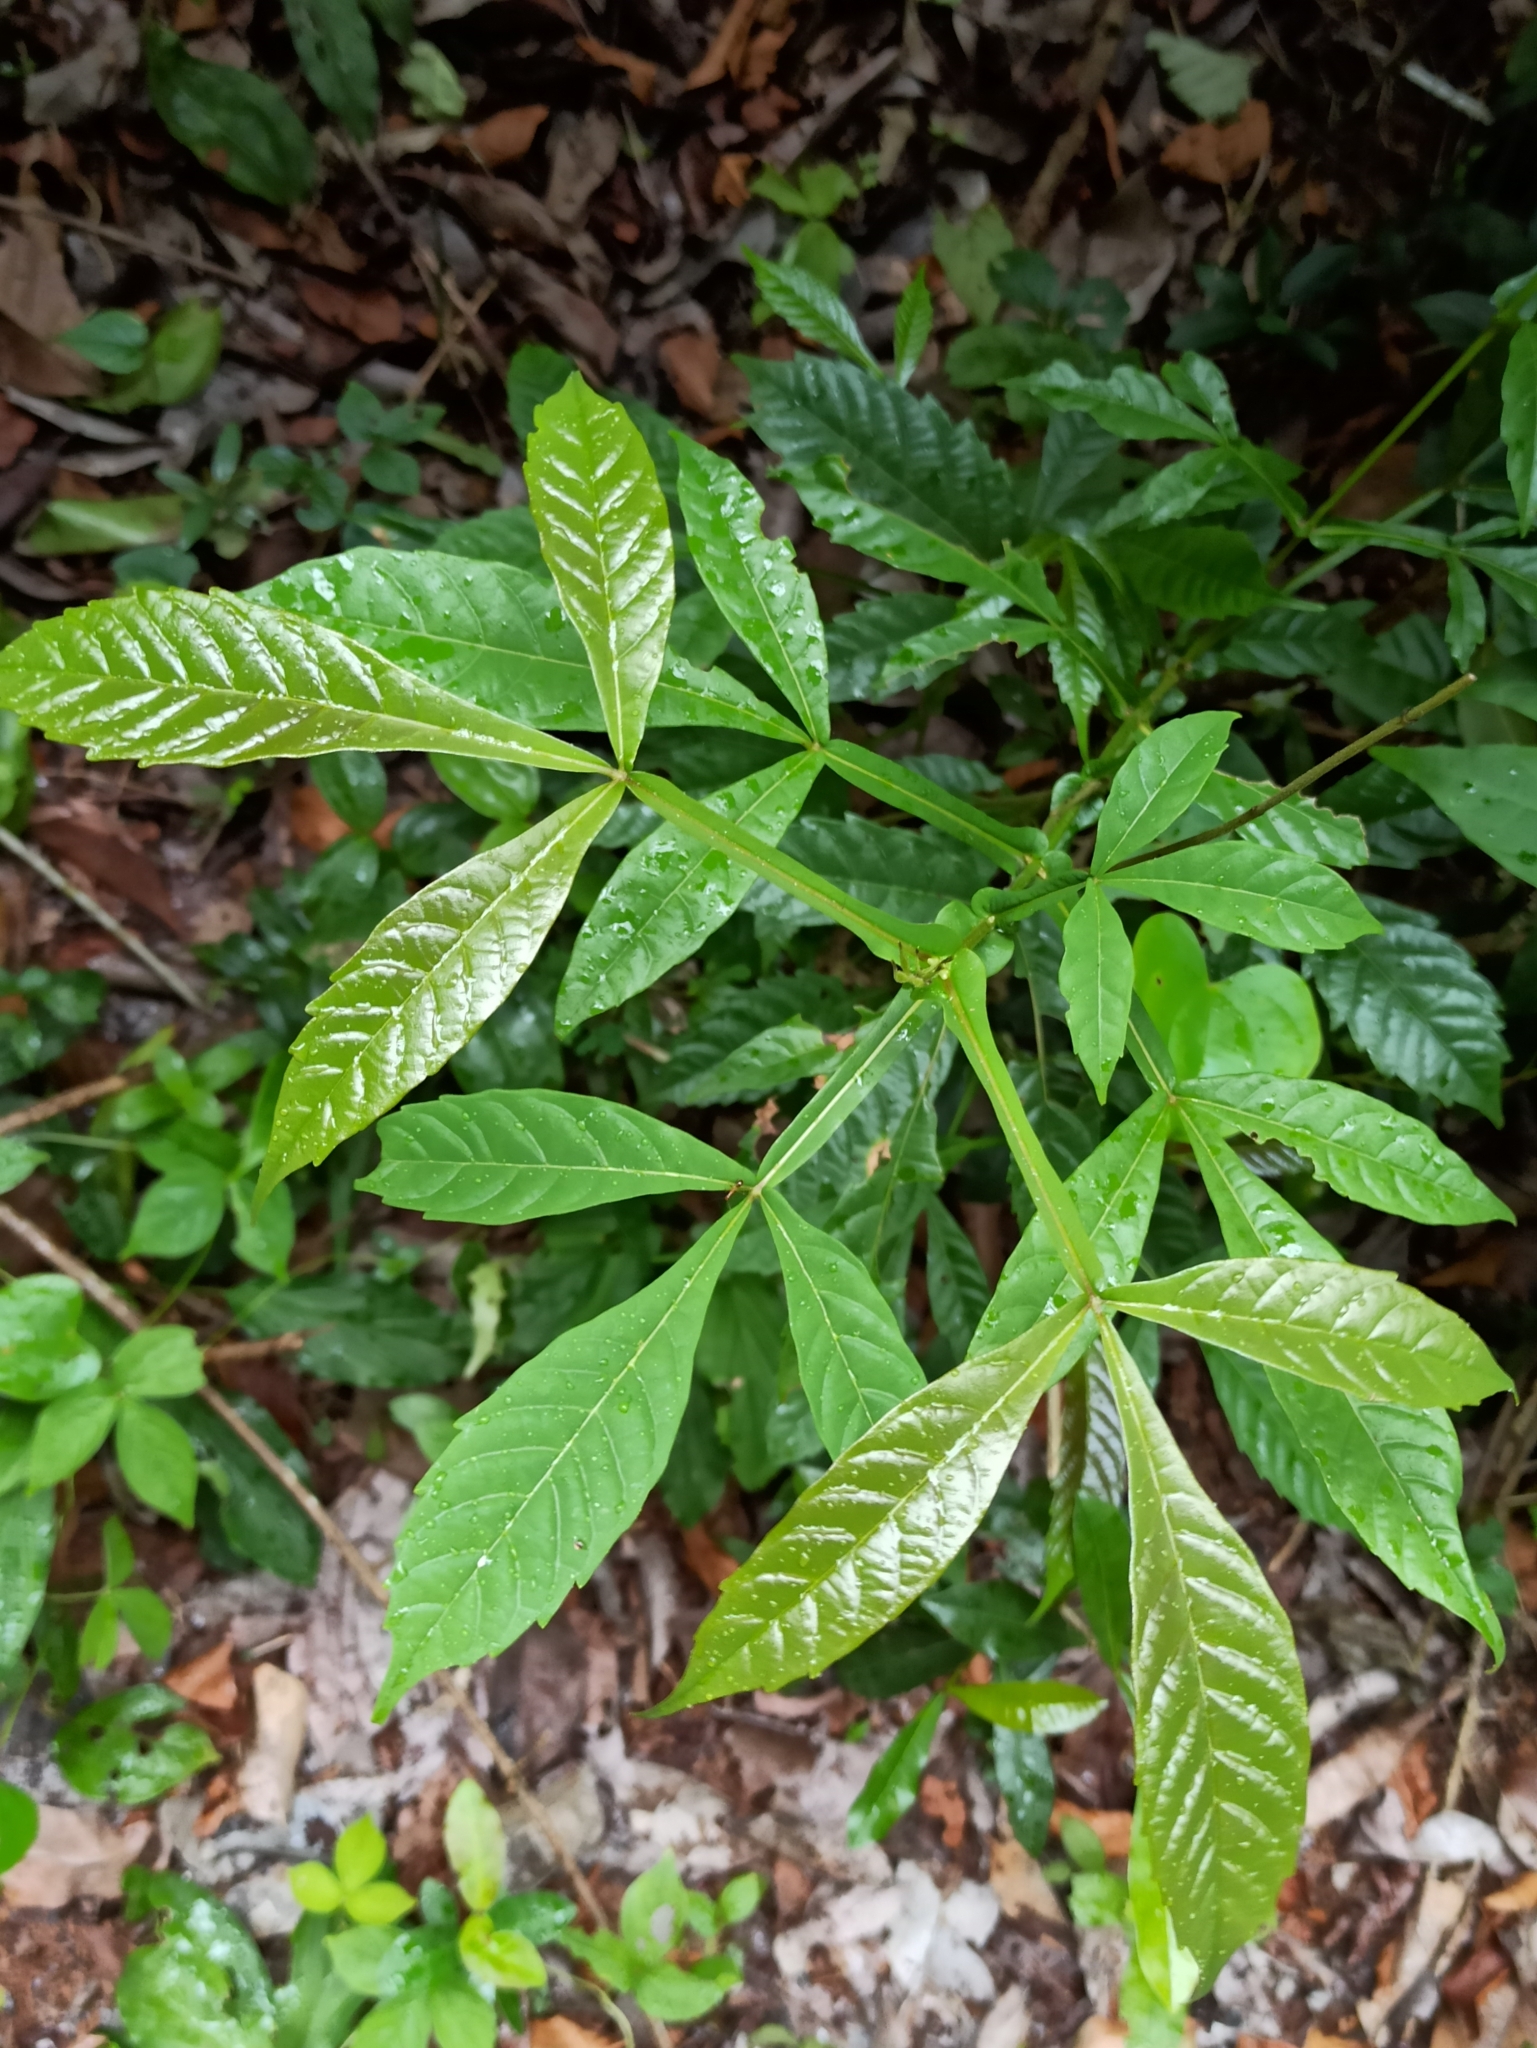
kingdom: Plantae
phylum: Tracheophyta
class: Magnoliopsida
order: Lamiales
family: Lamiaceae
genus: Vitex
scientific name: Vitex altissima
